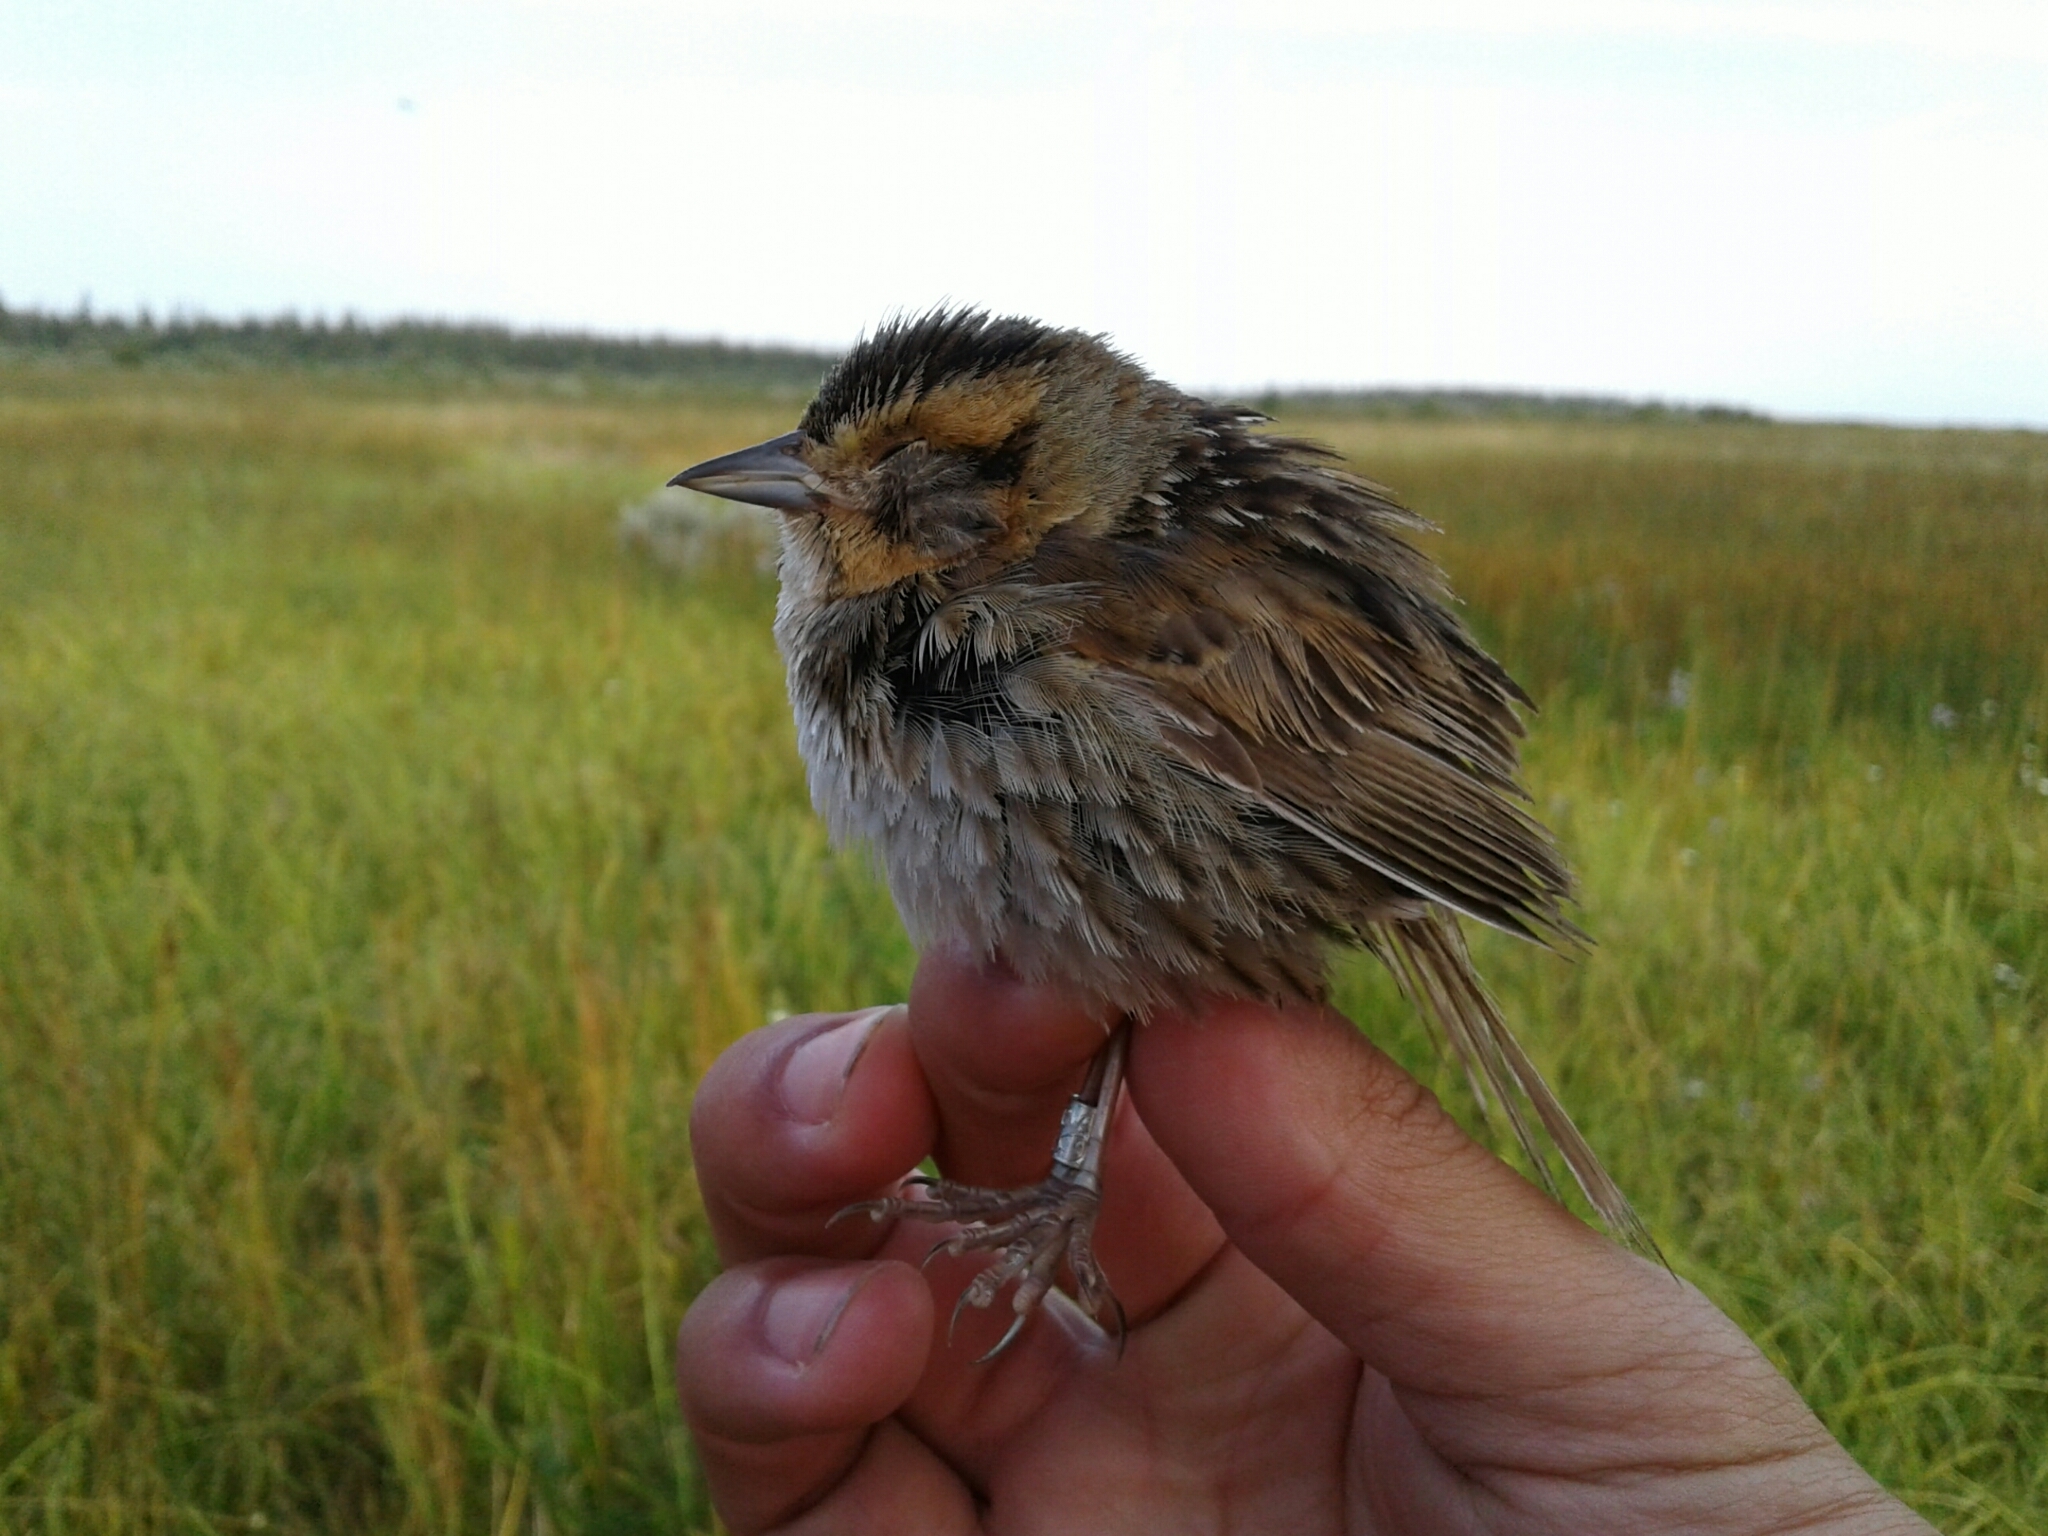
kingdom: Animalia
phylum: Chordata
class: Aves
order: Passeriformes
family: Passerellidae
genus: Ammospiza
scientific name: Ammospiza nelsoni
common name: Nelson's sparrow
